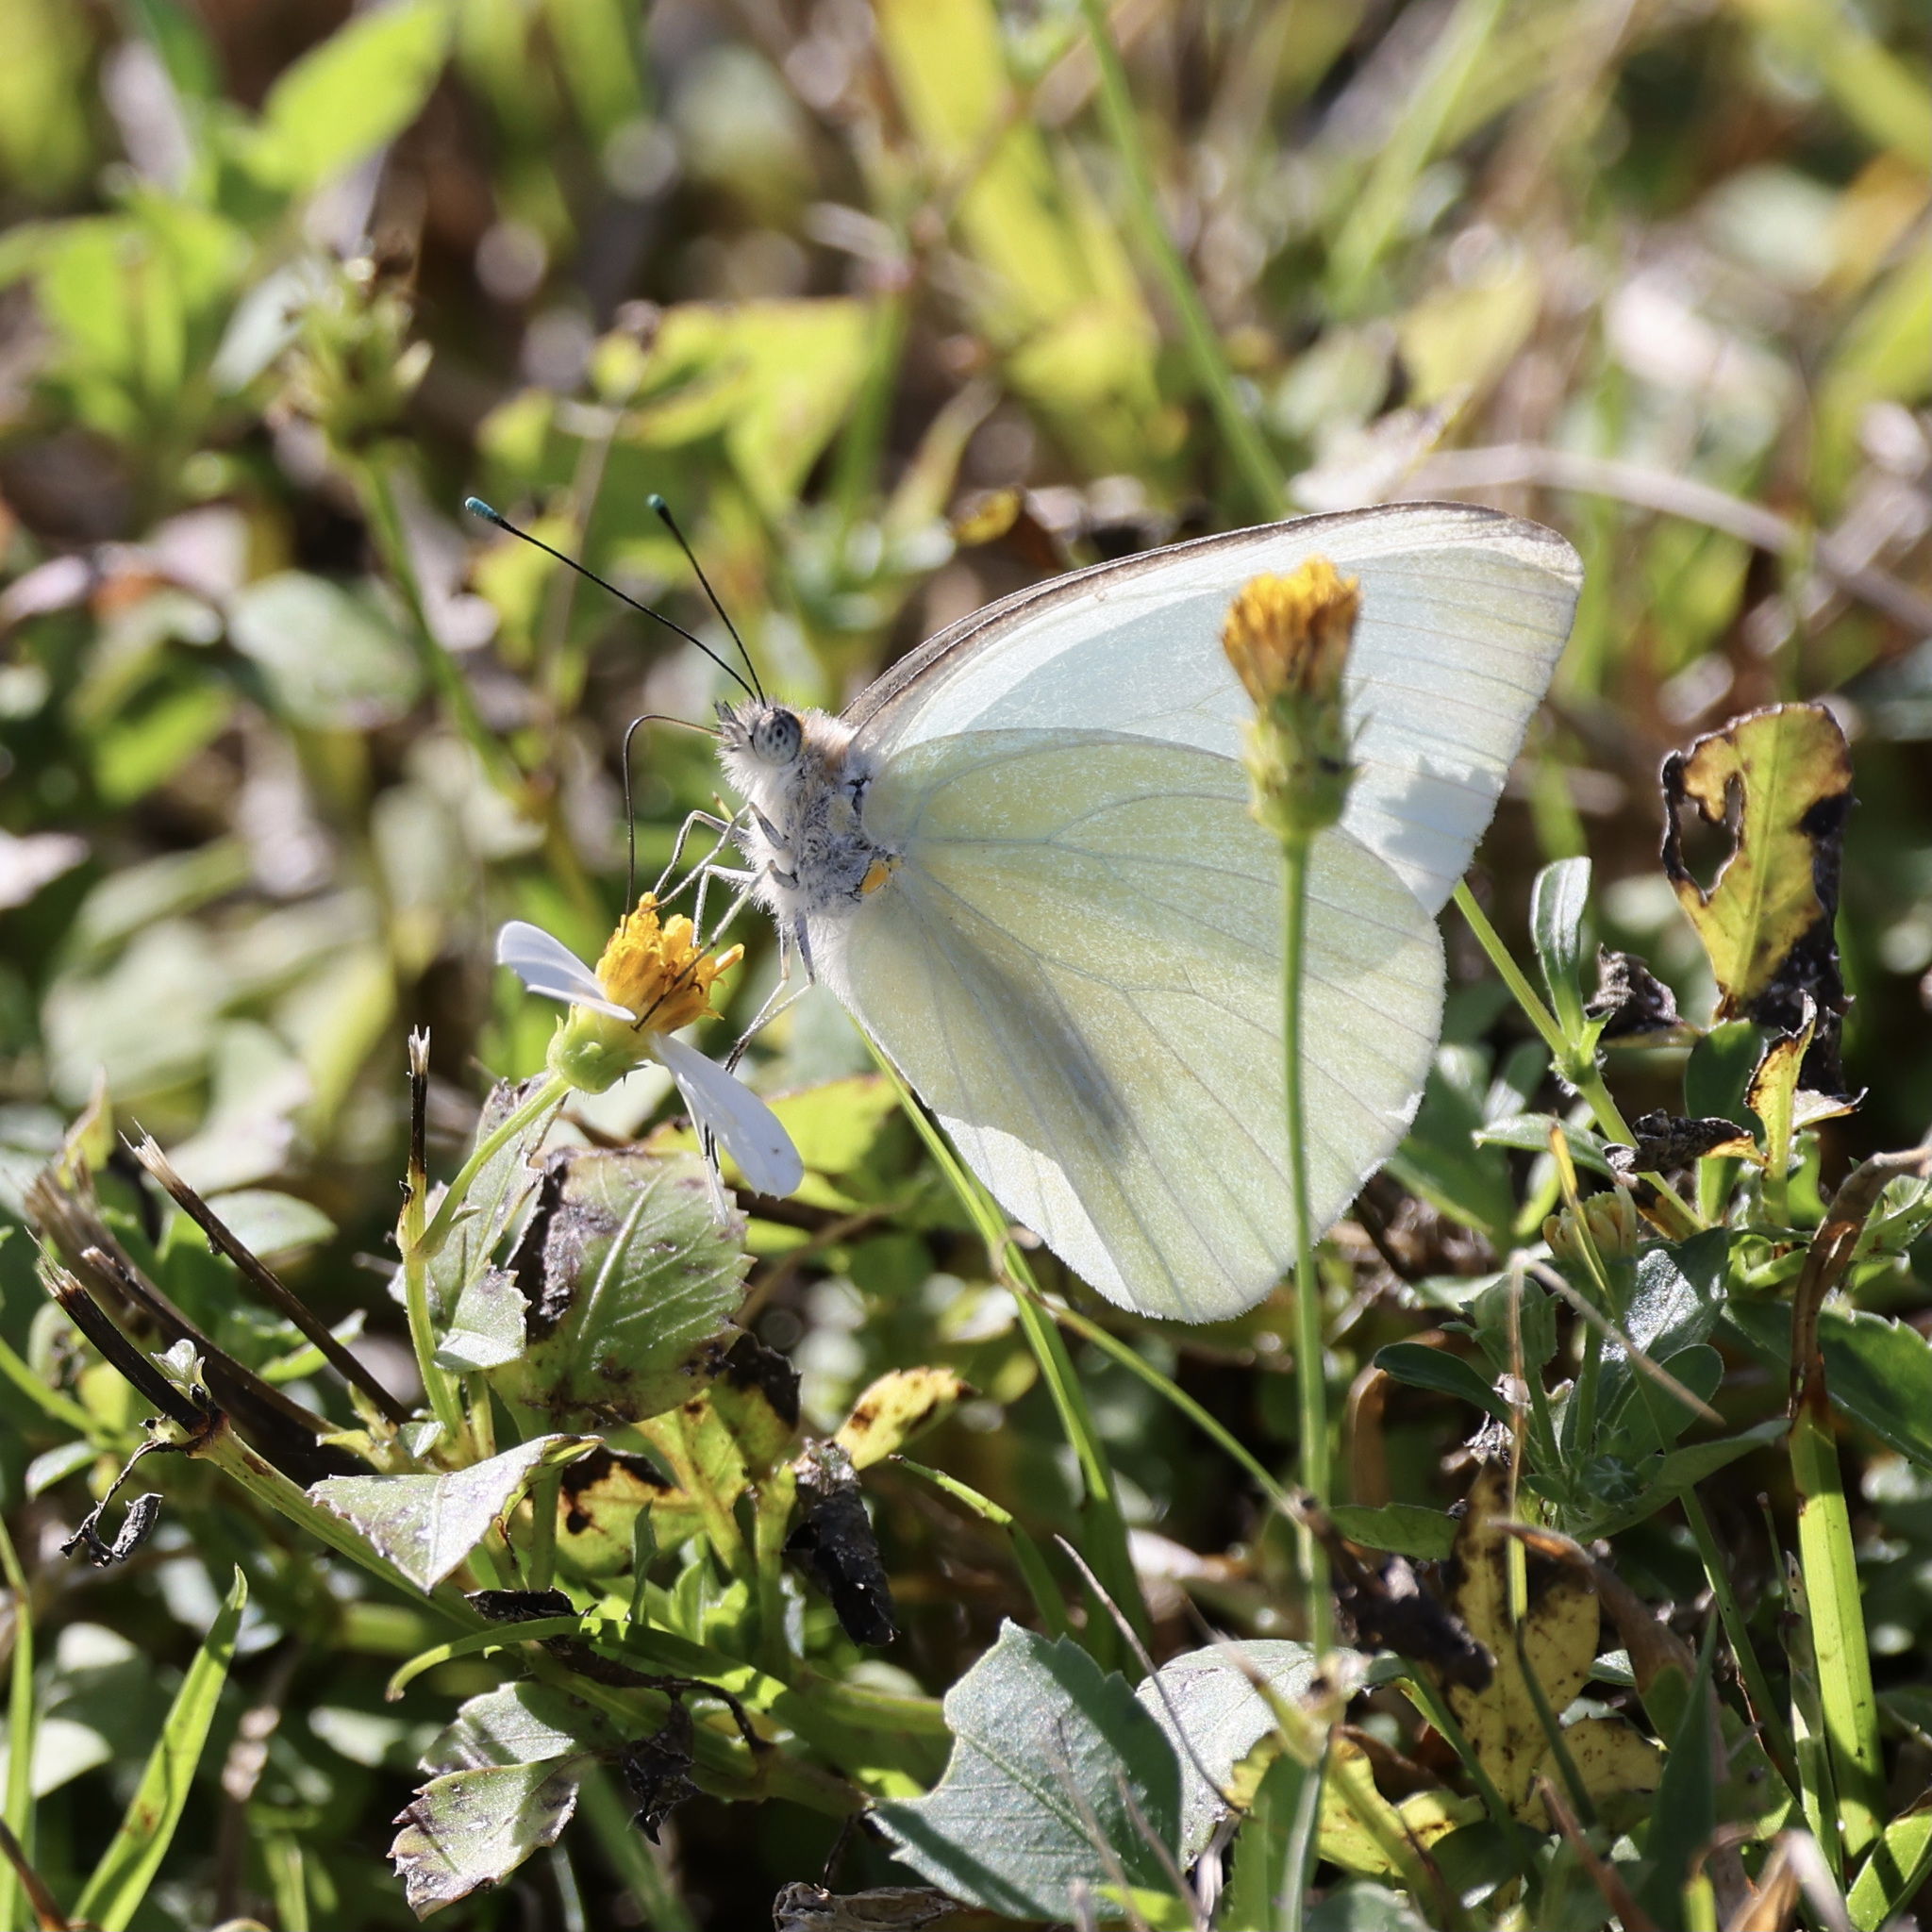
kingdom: Animalia
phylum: Arthropoda
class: Insecta
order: Lepidoptera
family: Pieridae
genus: Ascia
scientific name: Ascia monuste
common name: Great southern white
